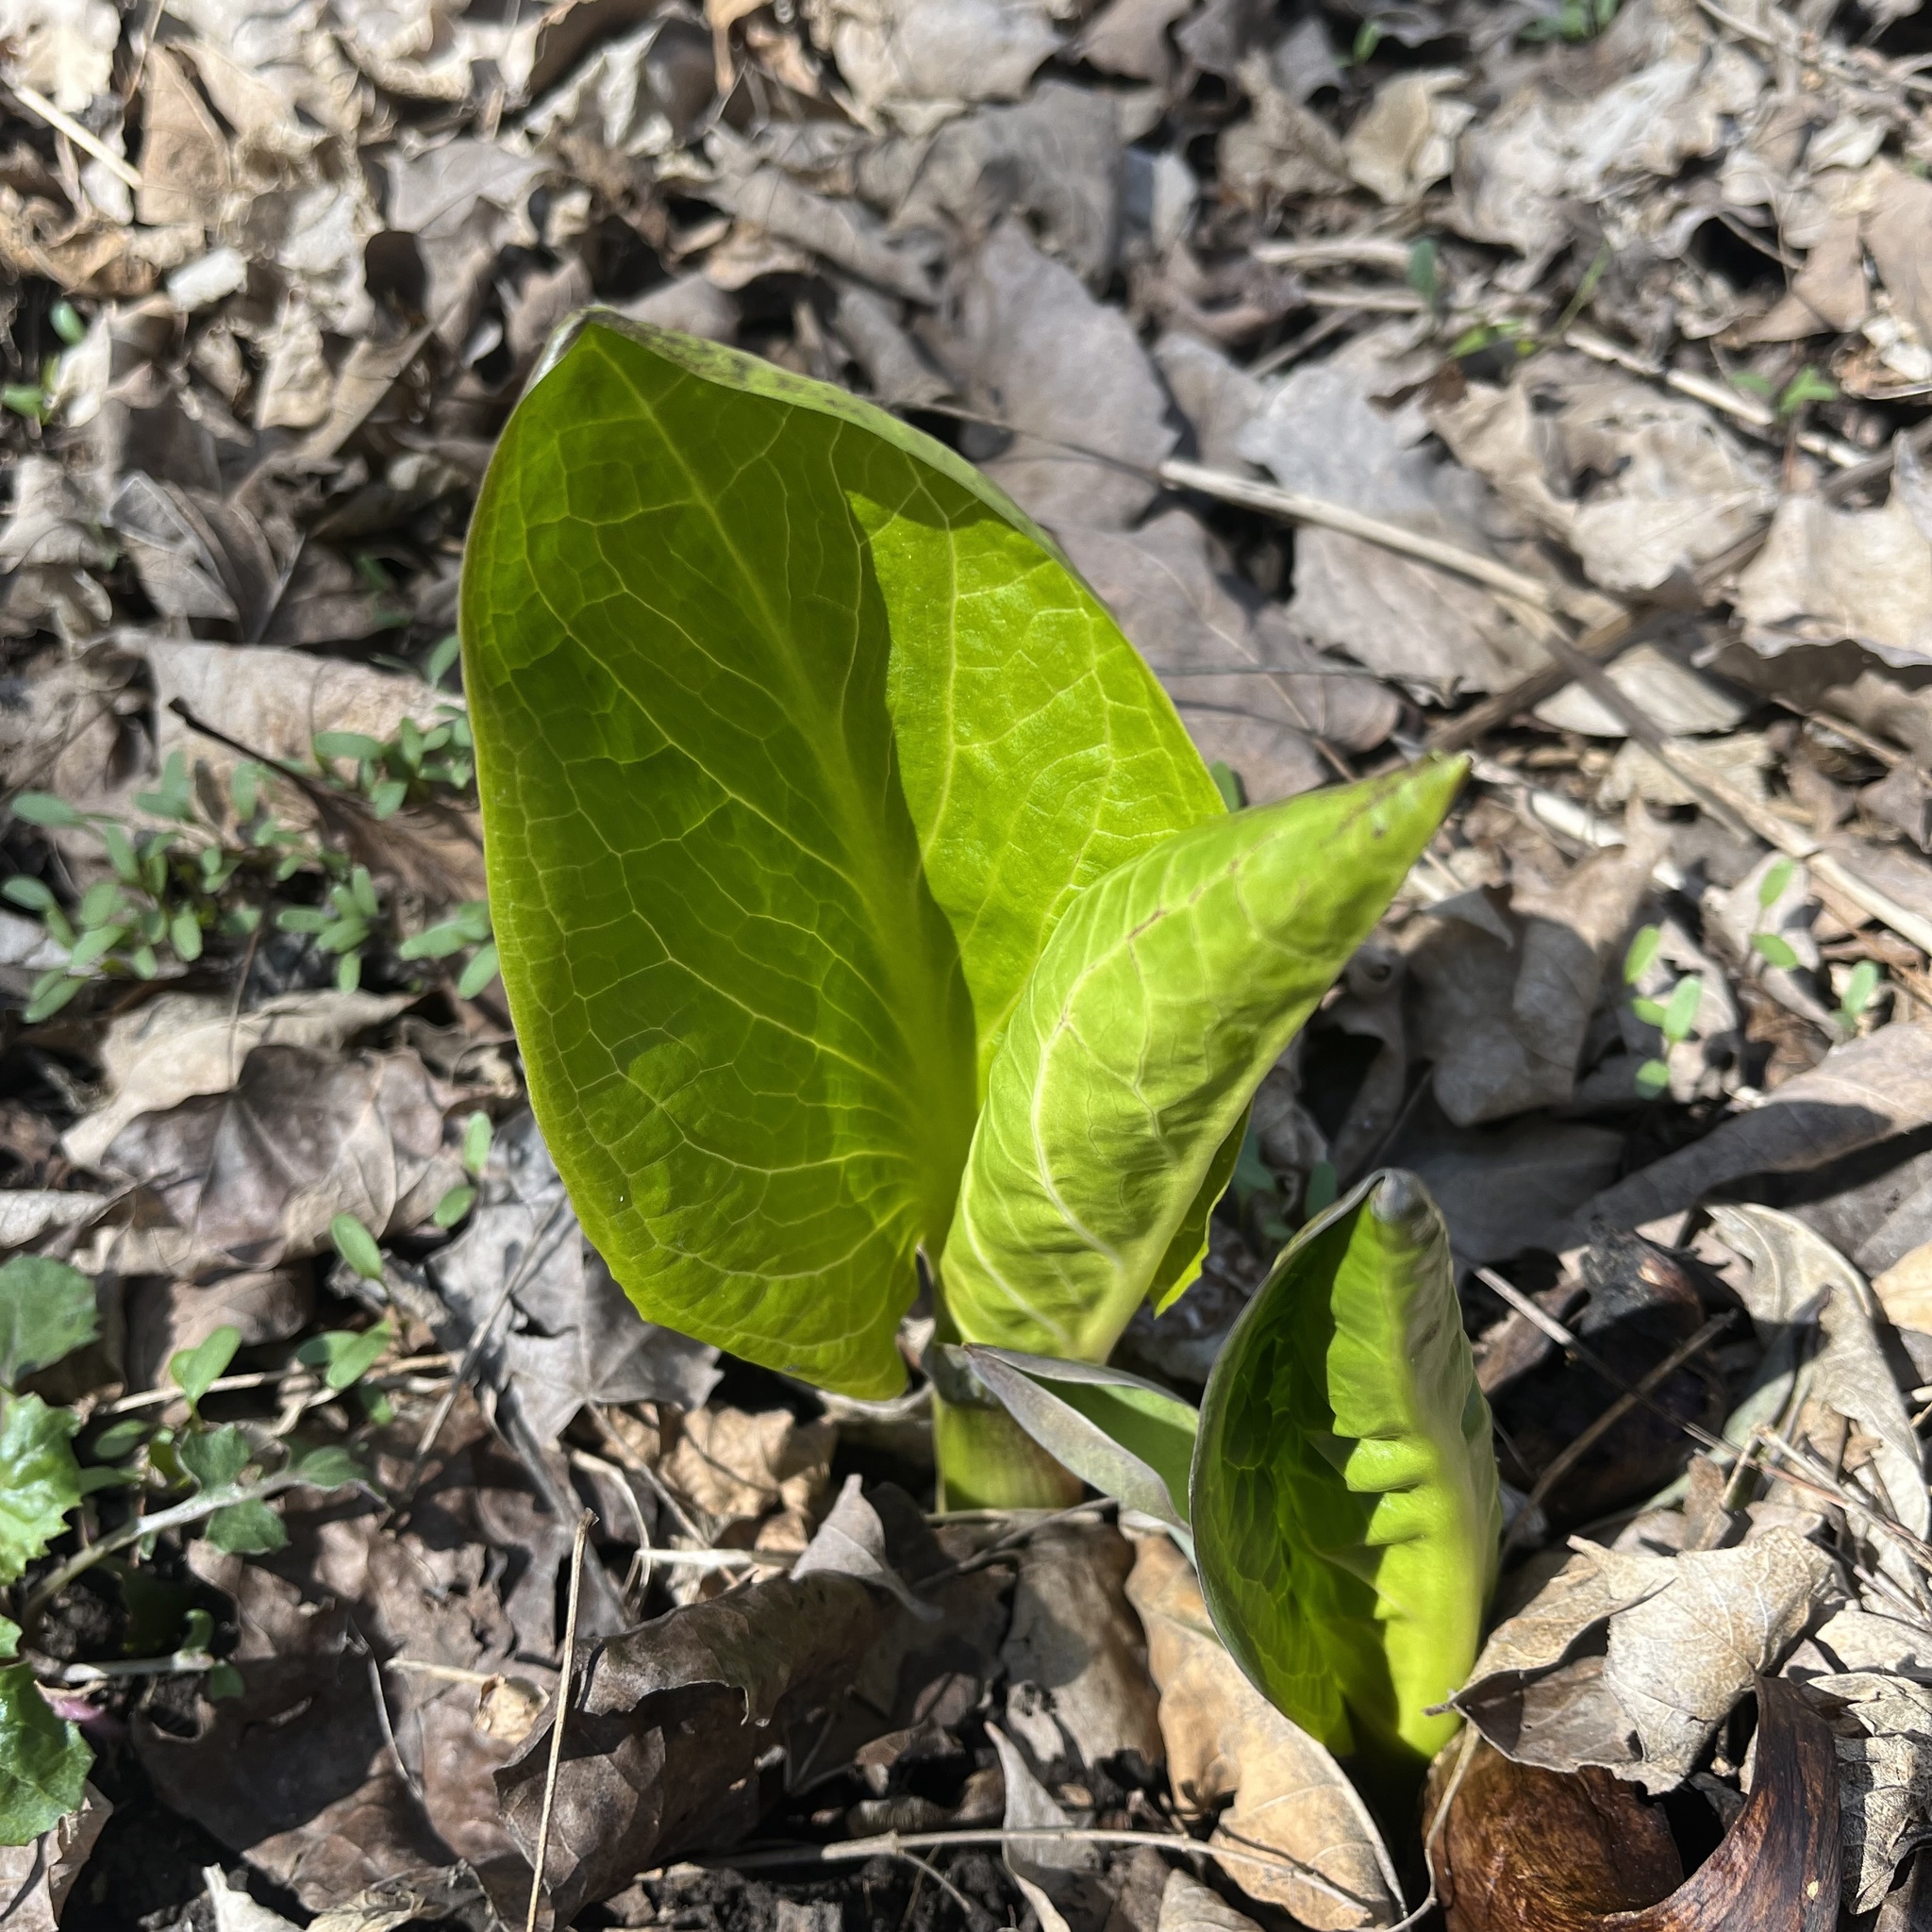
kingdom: Plantae
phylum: Tracheophyta
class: Liliopsida
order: Alismatales
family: Araceae
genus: Symplocarpus
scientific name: Symplocarpus foetidus
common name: Eastern skunk cabbage
